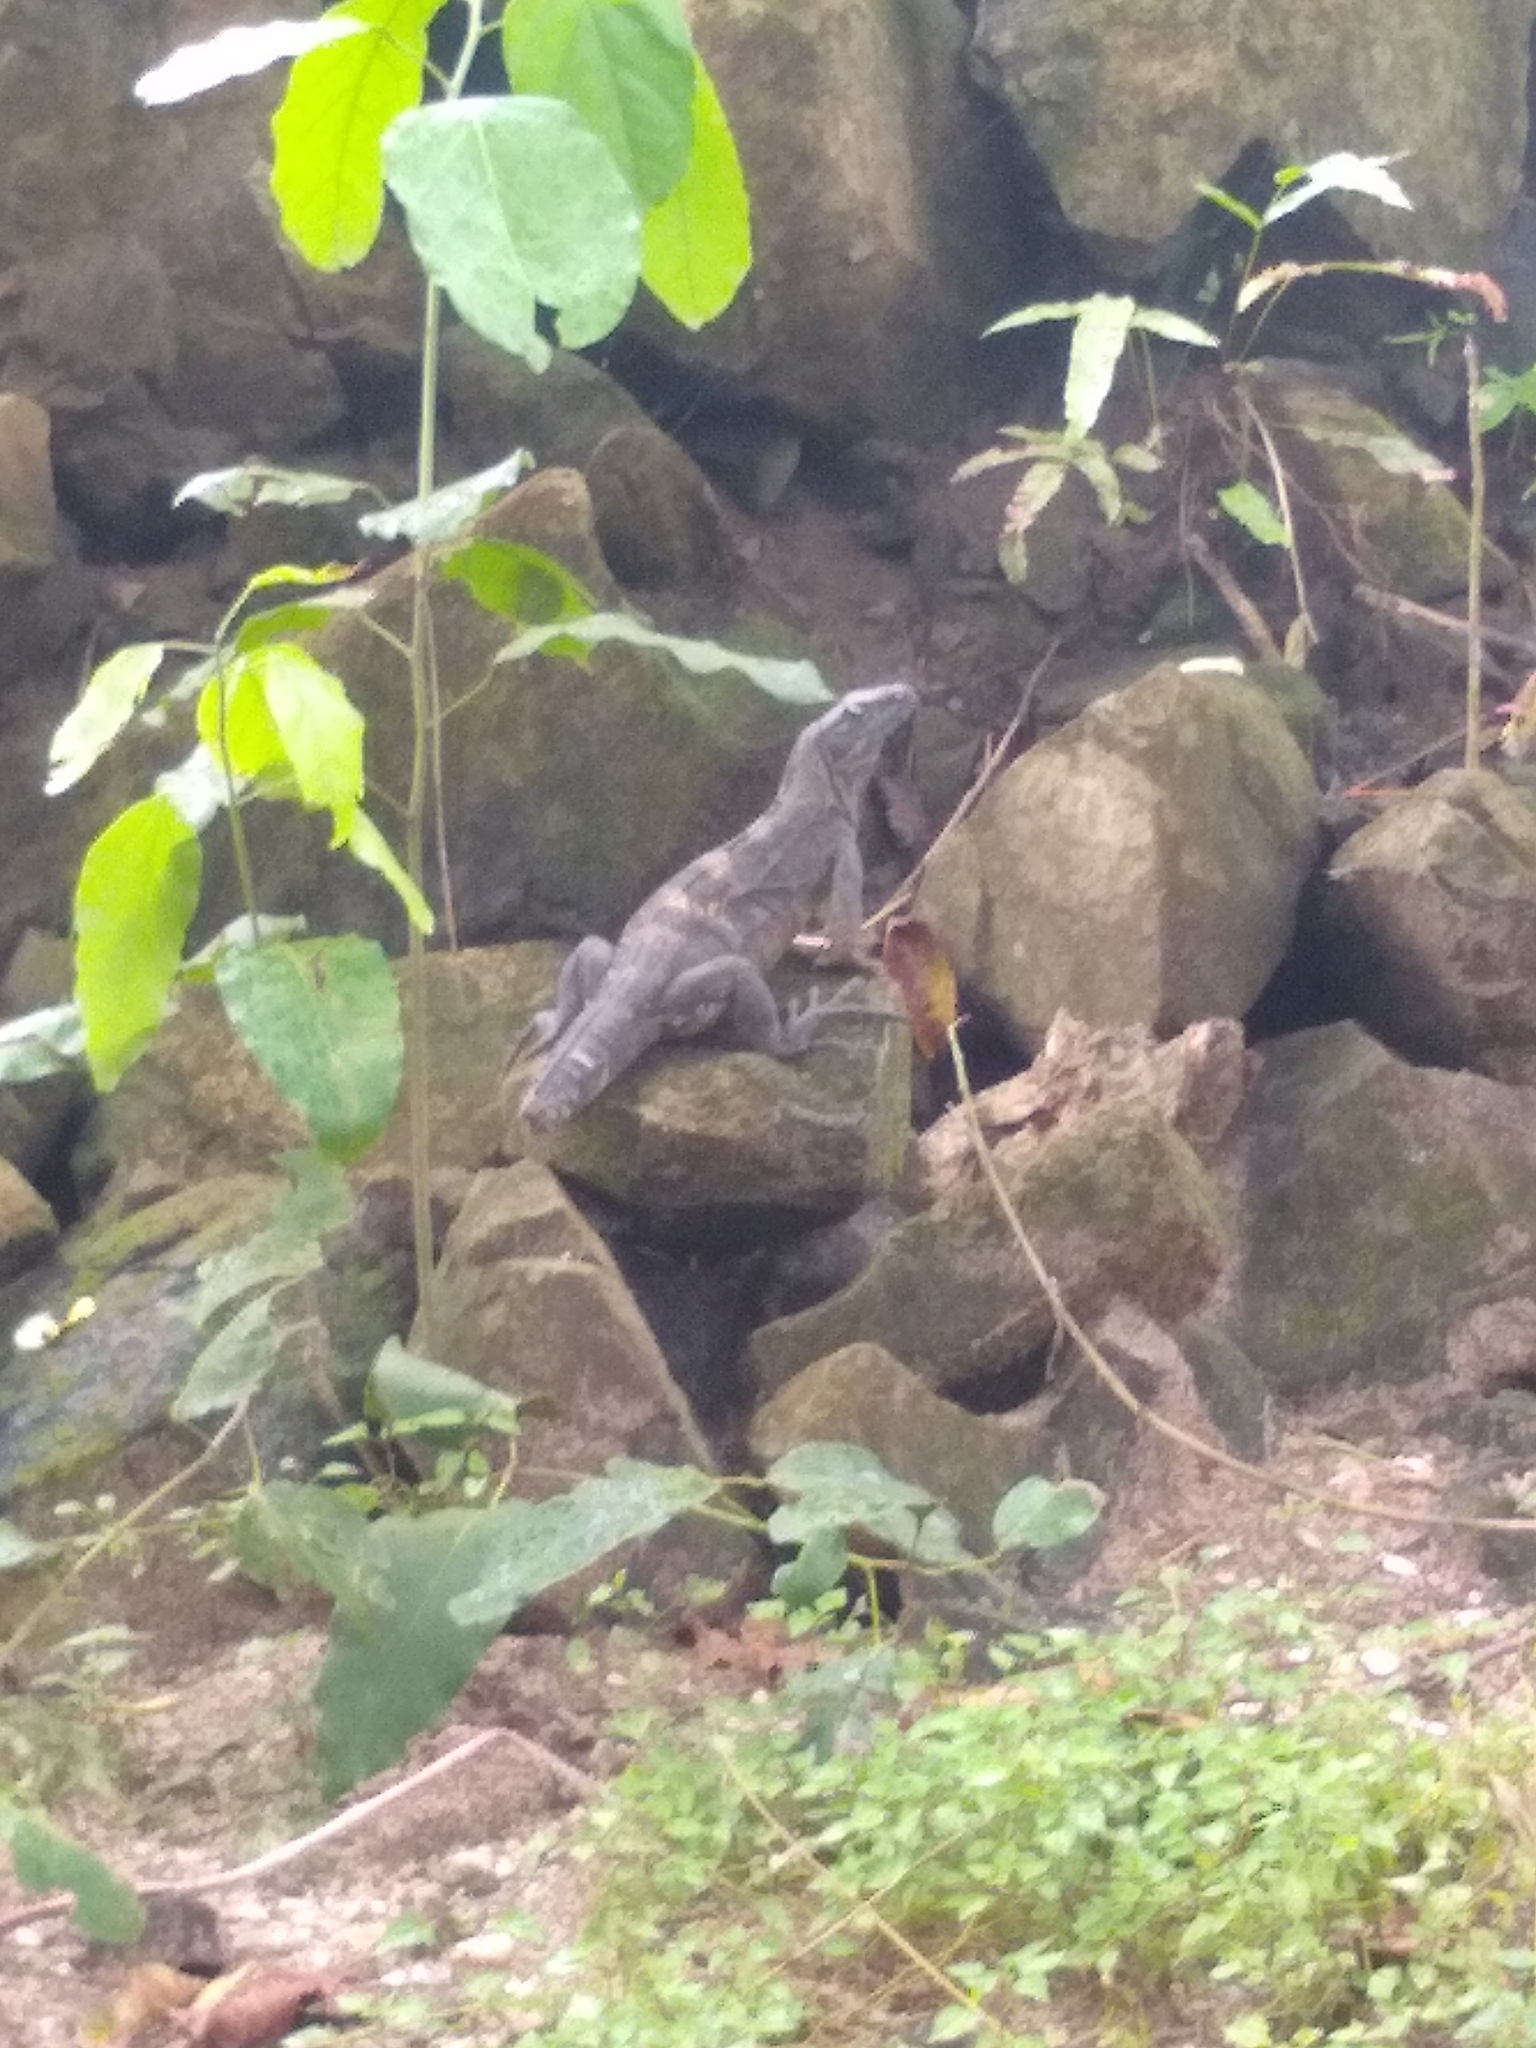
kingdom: Animalia
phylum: Chordata
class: Squamata
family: Iguanidae
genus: Ctenosaura
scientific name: Ctenosaura similis
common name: Black spiny-tailed iguana
